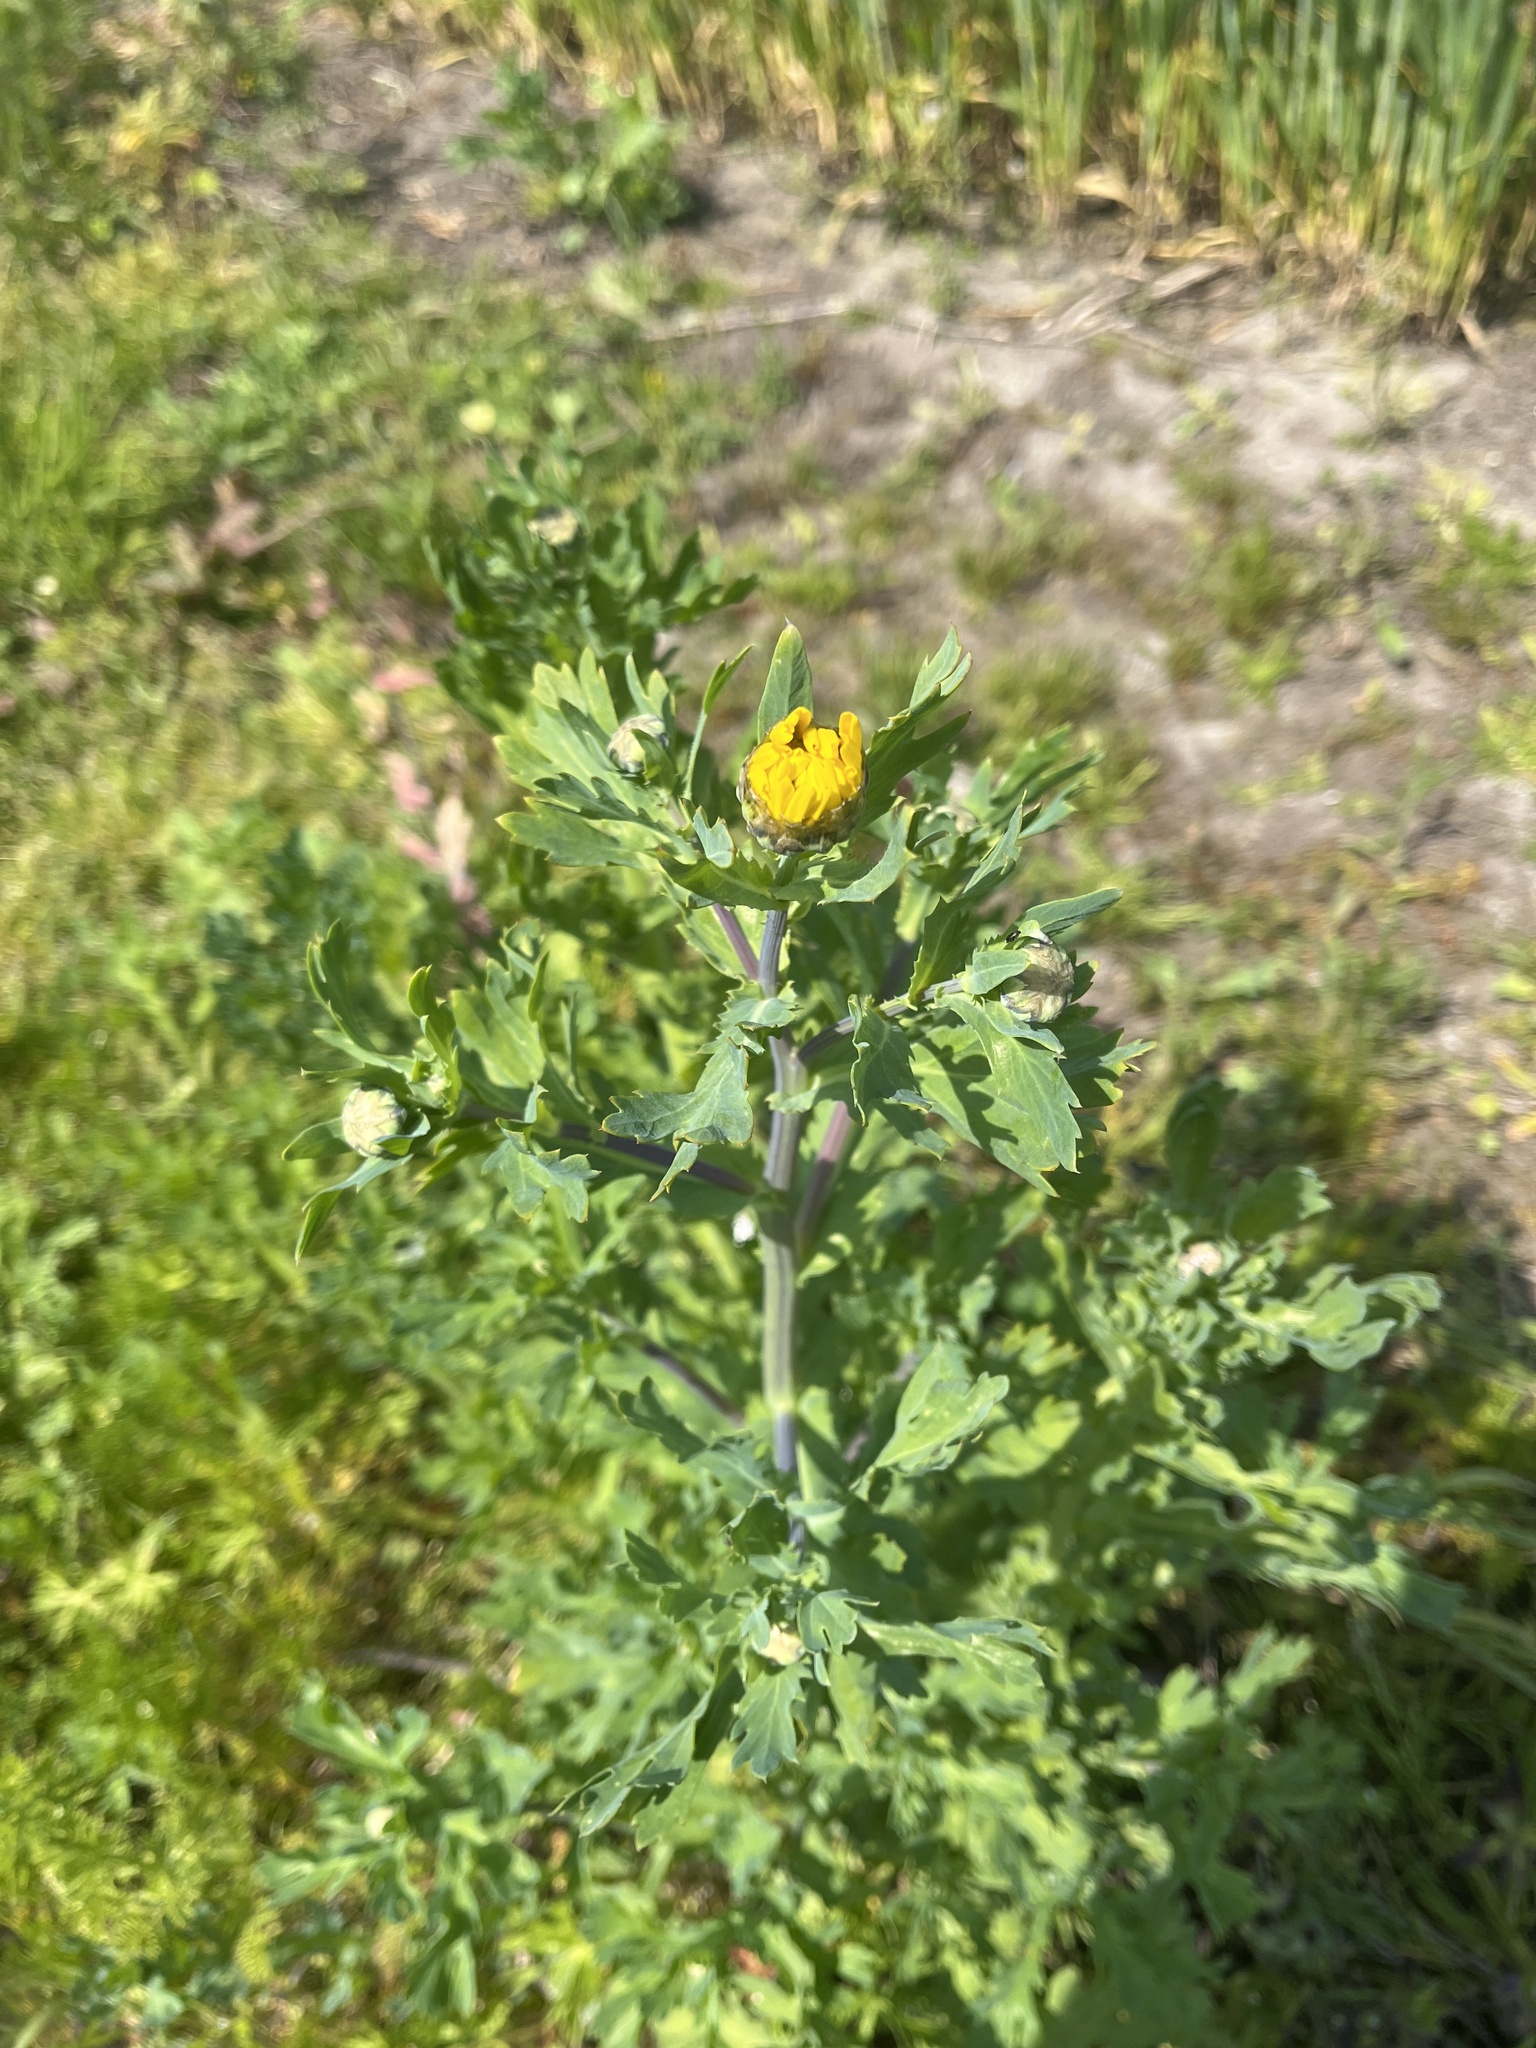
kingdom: Plantae
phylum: Tracheophyta
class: Magnoliopsida
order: Asterales
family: Asteraceae
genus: Glebionis
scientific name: Glebionis segetum
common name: Corndaisy
